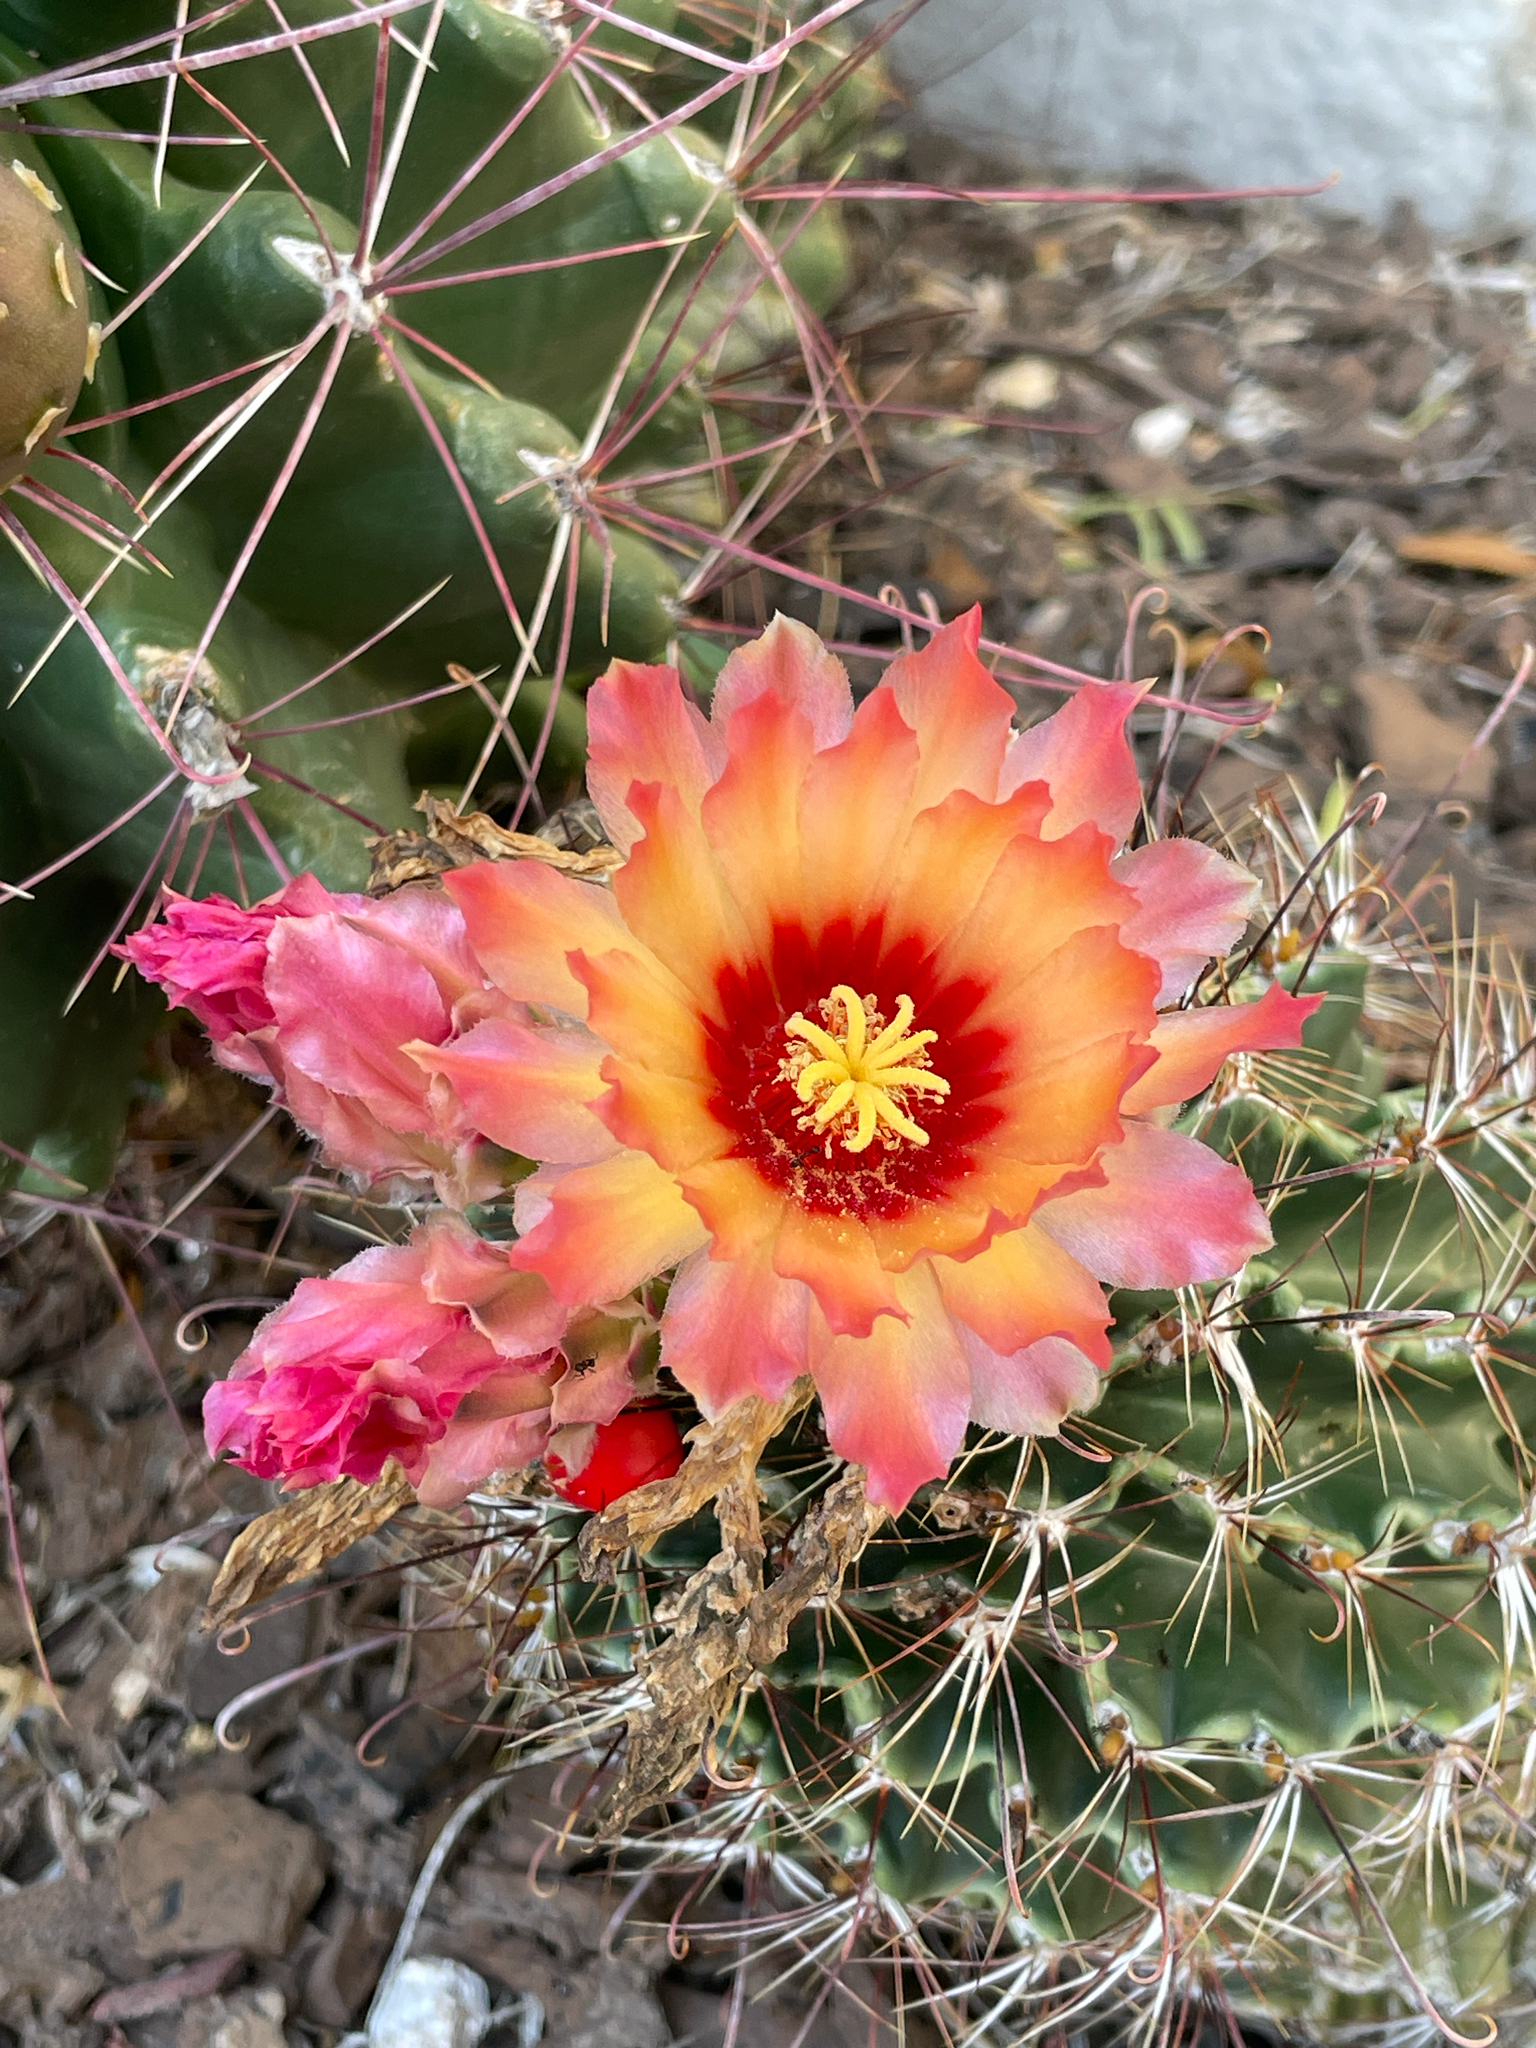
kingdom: Plantae
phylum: Tracheophyta
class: Magnoliopsida
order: Caryophyllales
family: Cactaceae
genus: Thelocactus
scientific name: Thelocactus setispinus
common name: Miniature barrel cactus
